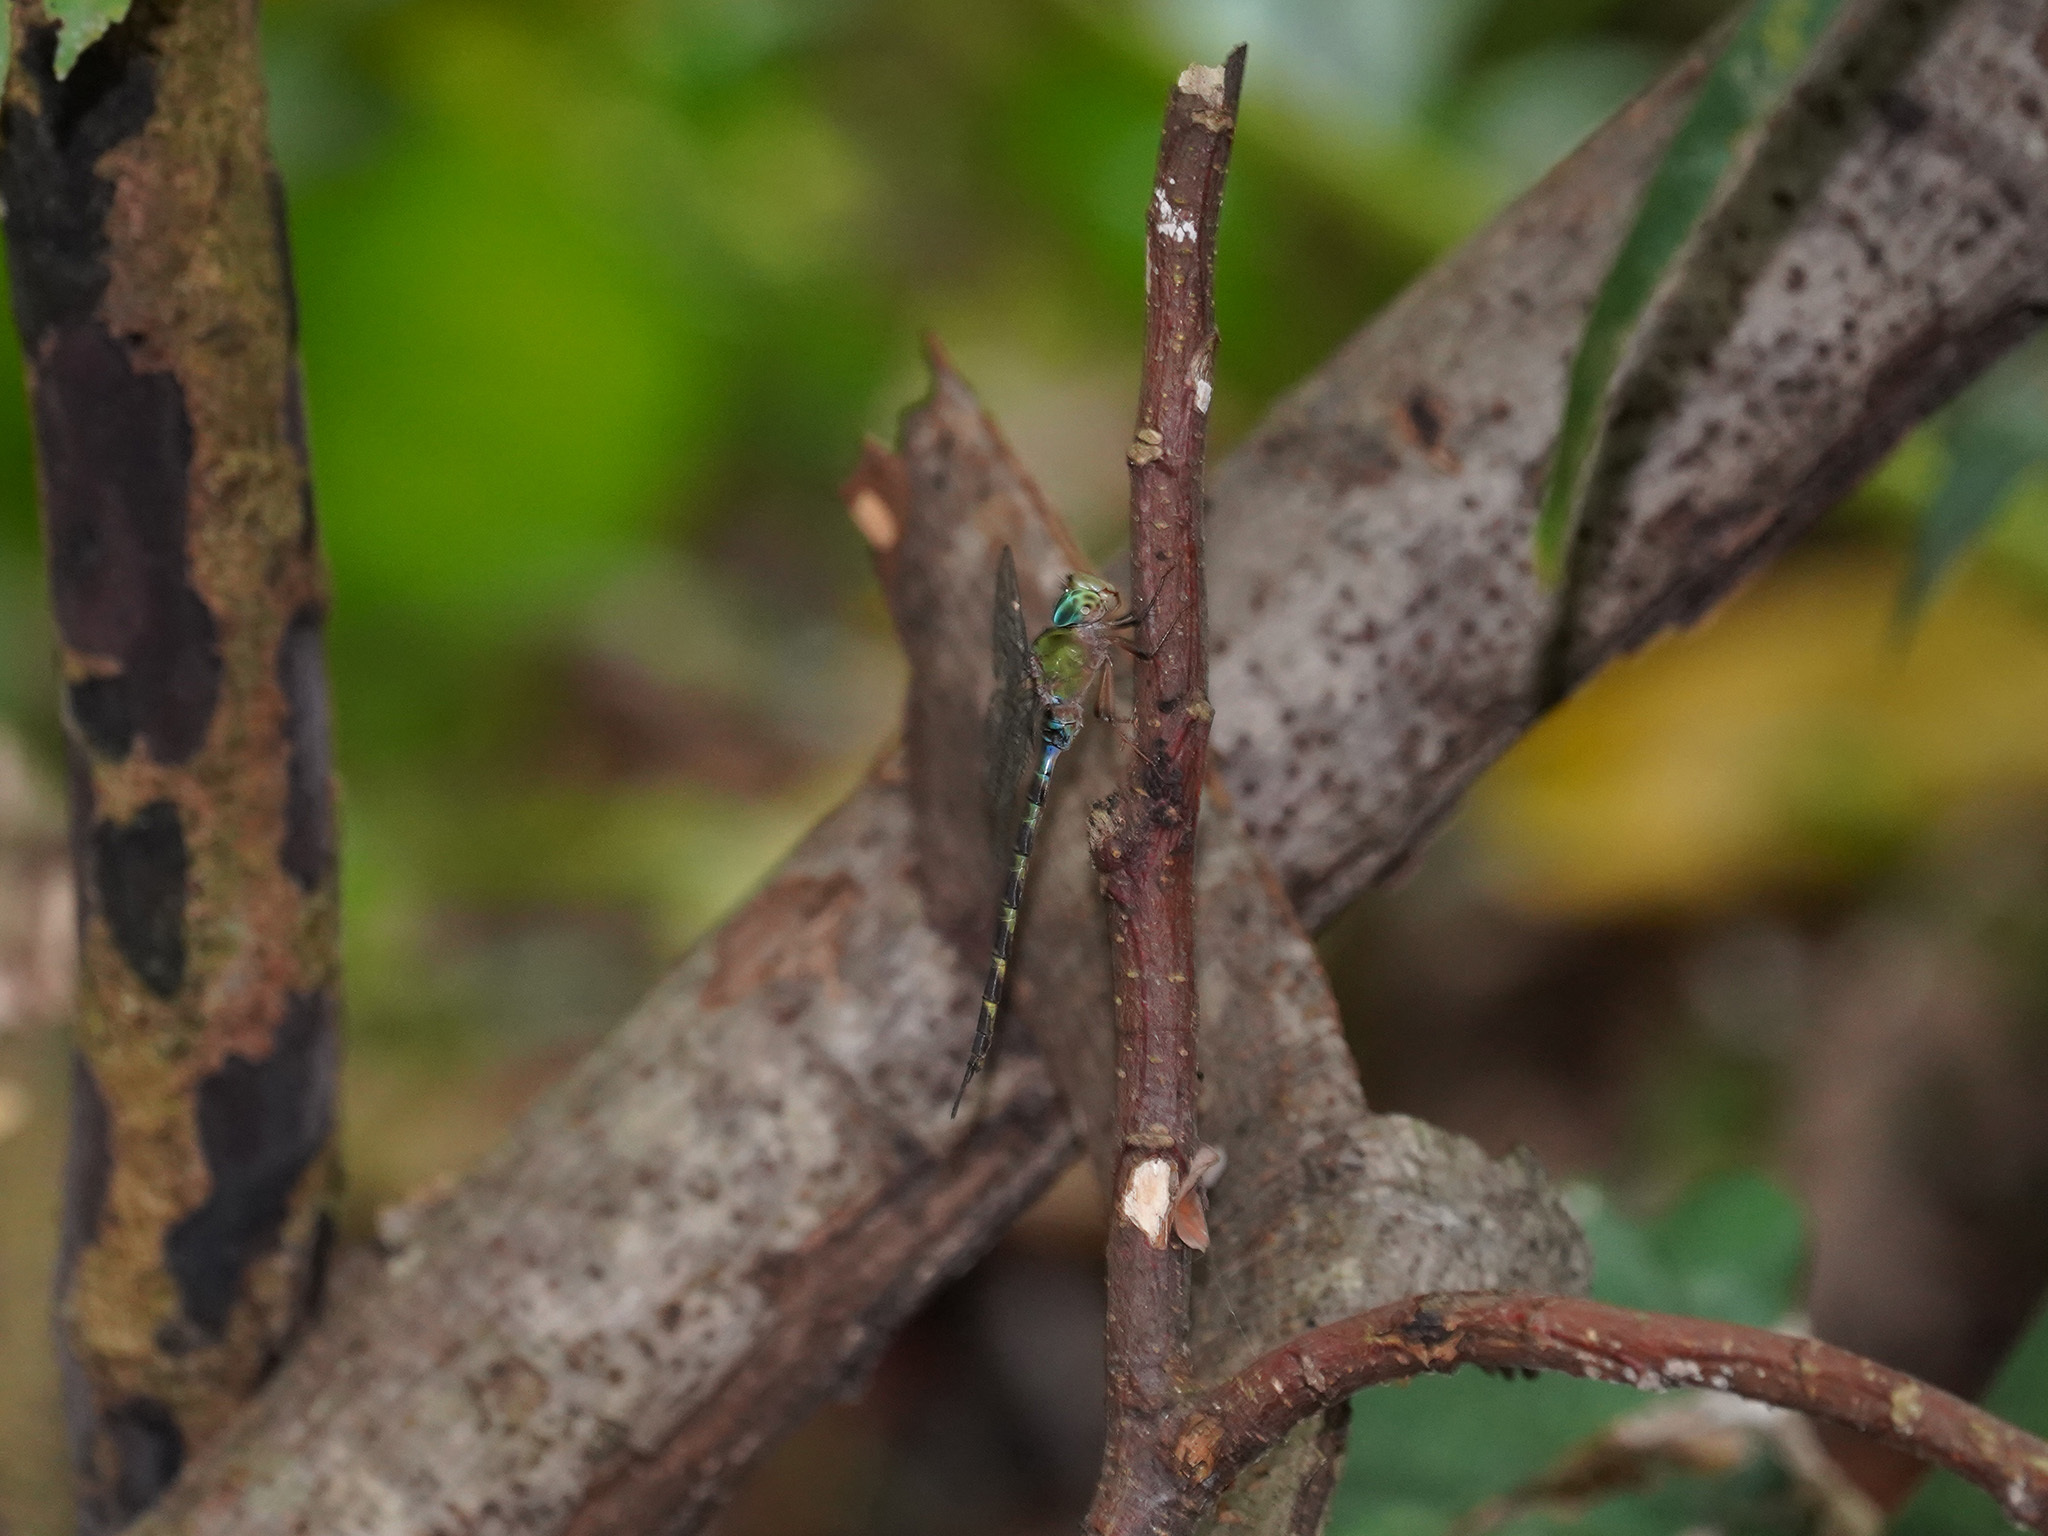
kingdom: Animalia
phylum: Arthropoda
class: Insecta
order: Odonata
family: Aeshnidae
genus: Gynacantha
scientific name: Gynacantha subinterrupta
